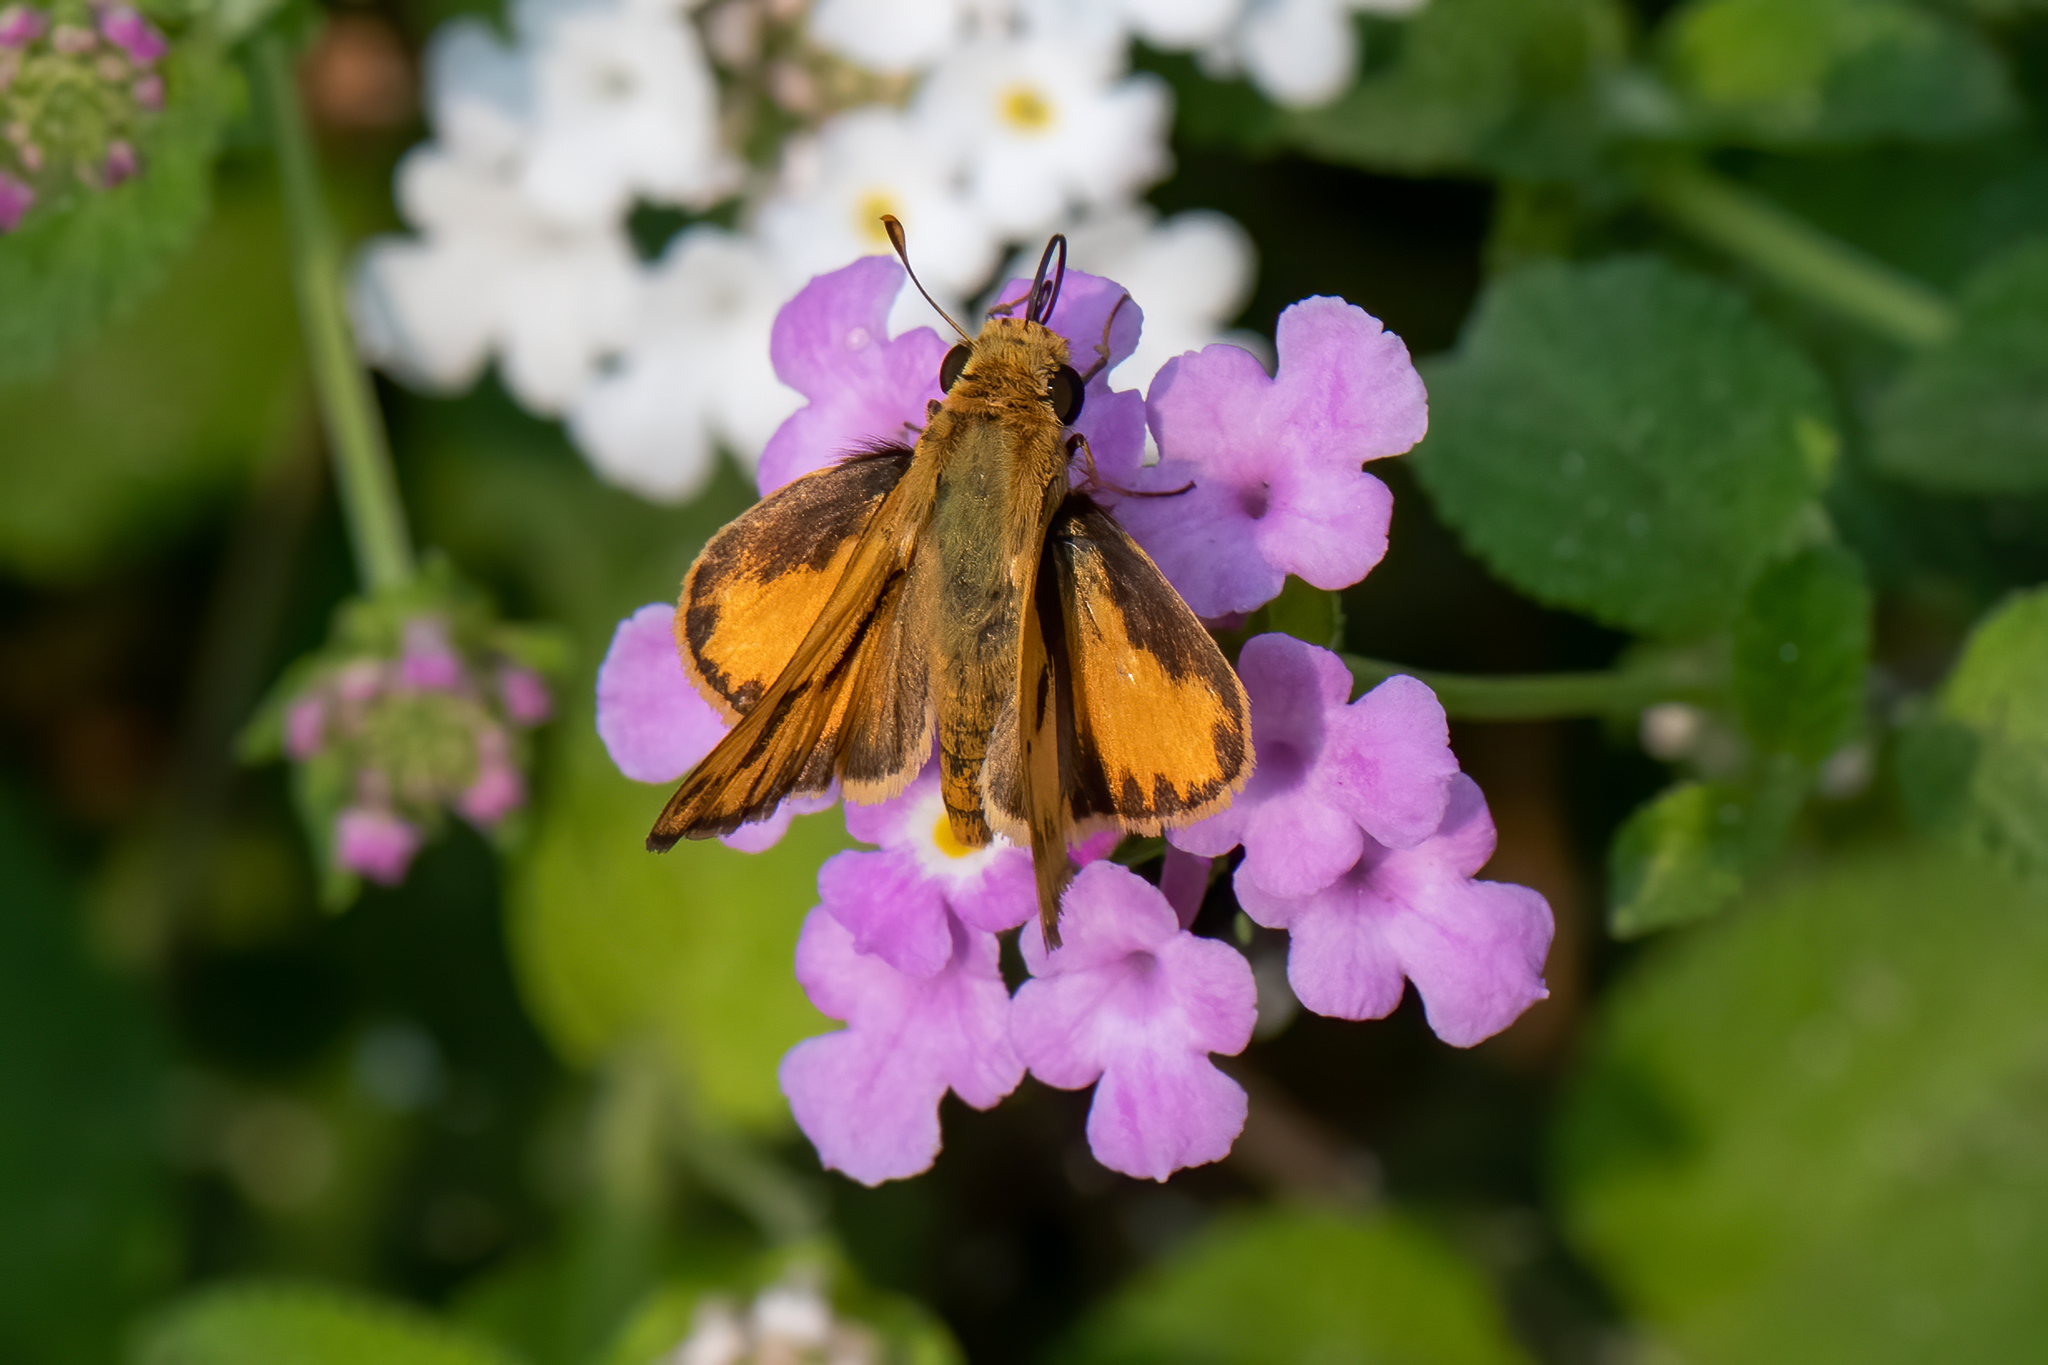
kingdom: Animalia
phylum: Arthropoda
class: Insecta
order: Lepidoptera
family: Hesperiidae
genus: Hylephila
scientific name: Hylephila phyleus
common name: Fiery skipper
